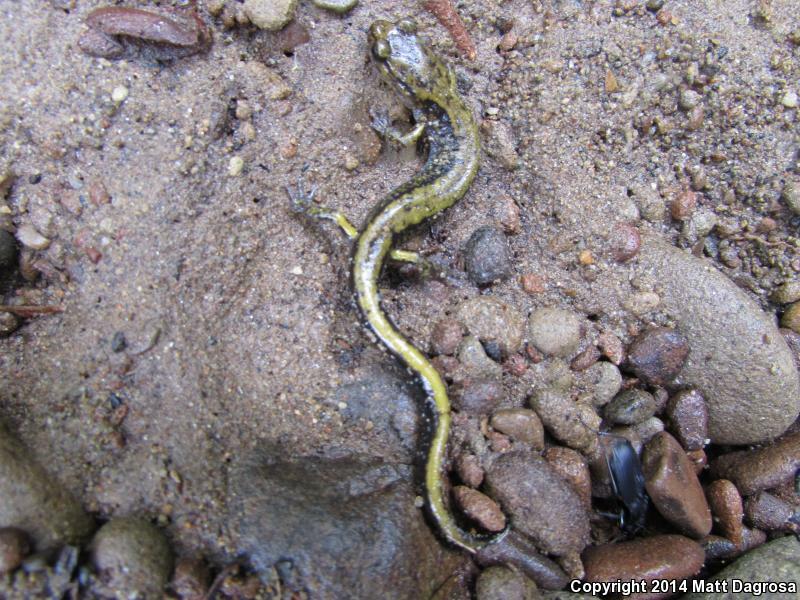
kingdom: Animalia
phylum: Chordata
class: Amphibia
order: Caudata
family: Plethodontidae
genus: Plethodon
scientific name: Plethodon dunni
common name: Dunn's salamander
